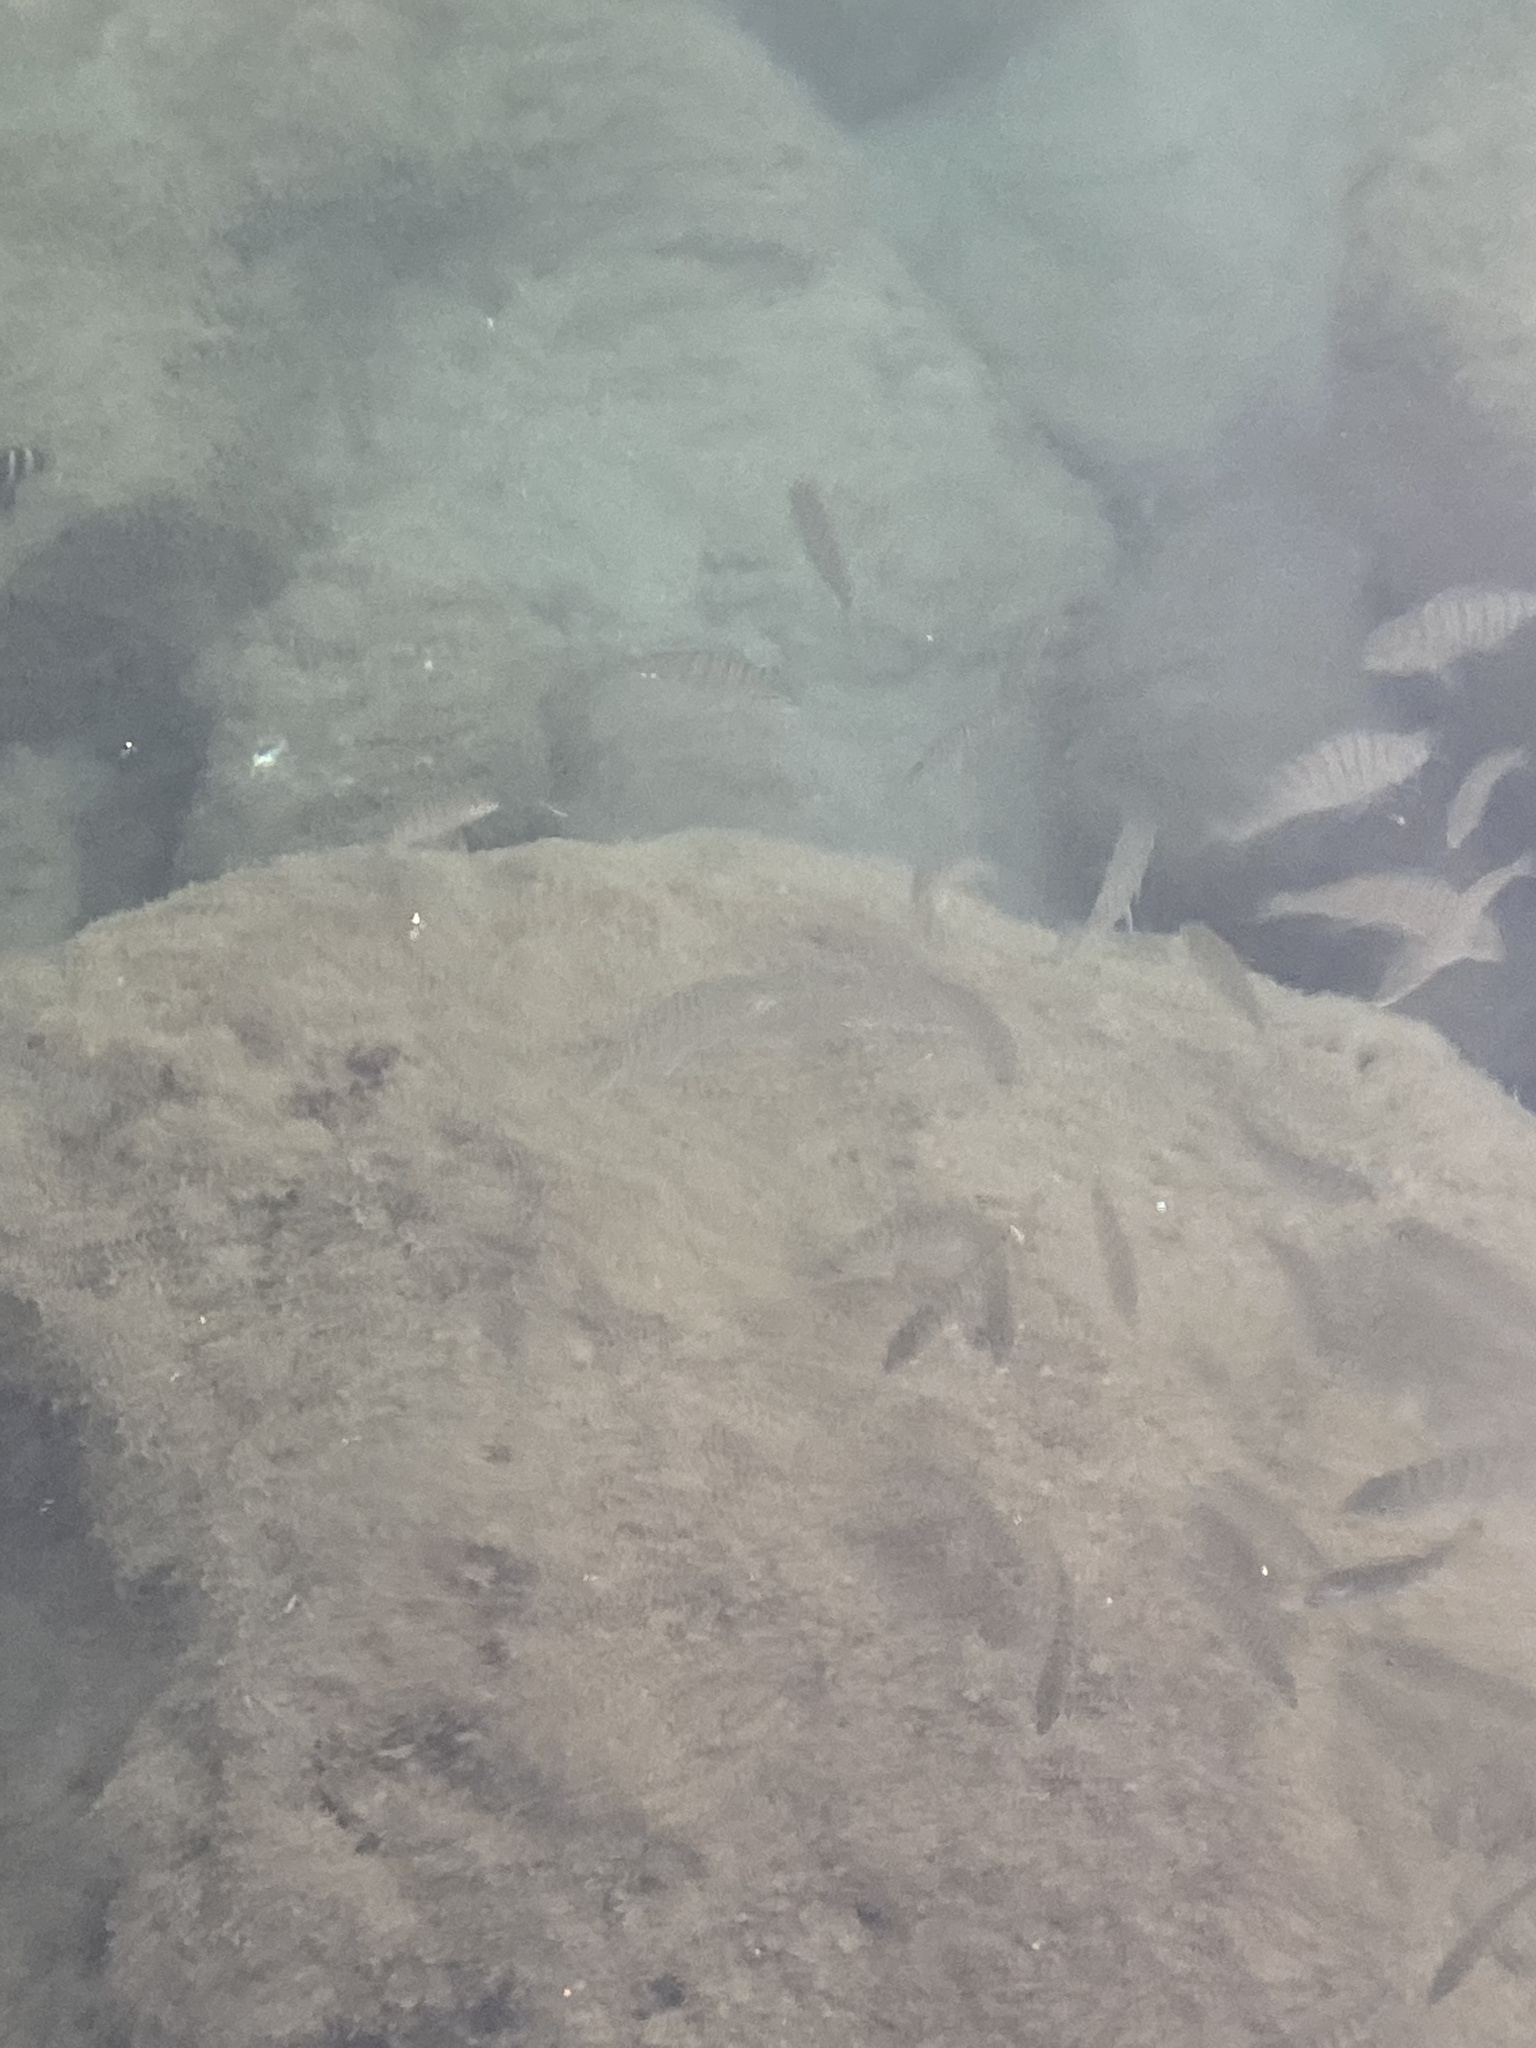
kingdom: Animalia
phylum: Chordata
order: Perciformes
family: Sparidae
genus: Lithognathus
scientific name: Lithognathus mormyrus
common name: Sand steenbras
